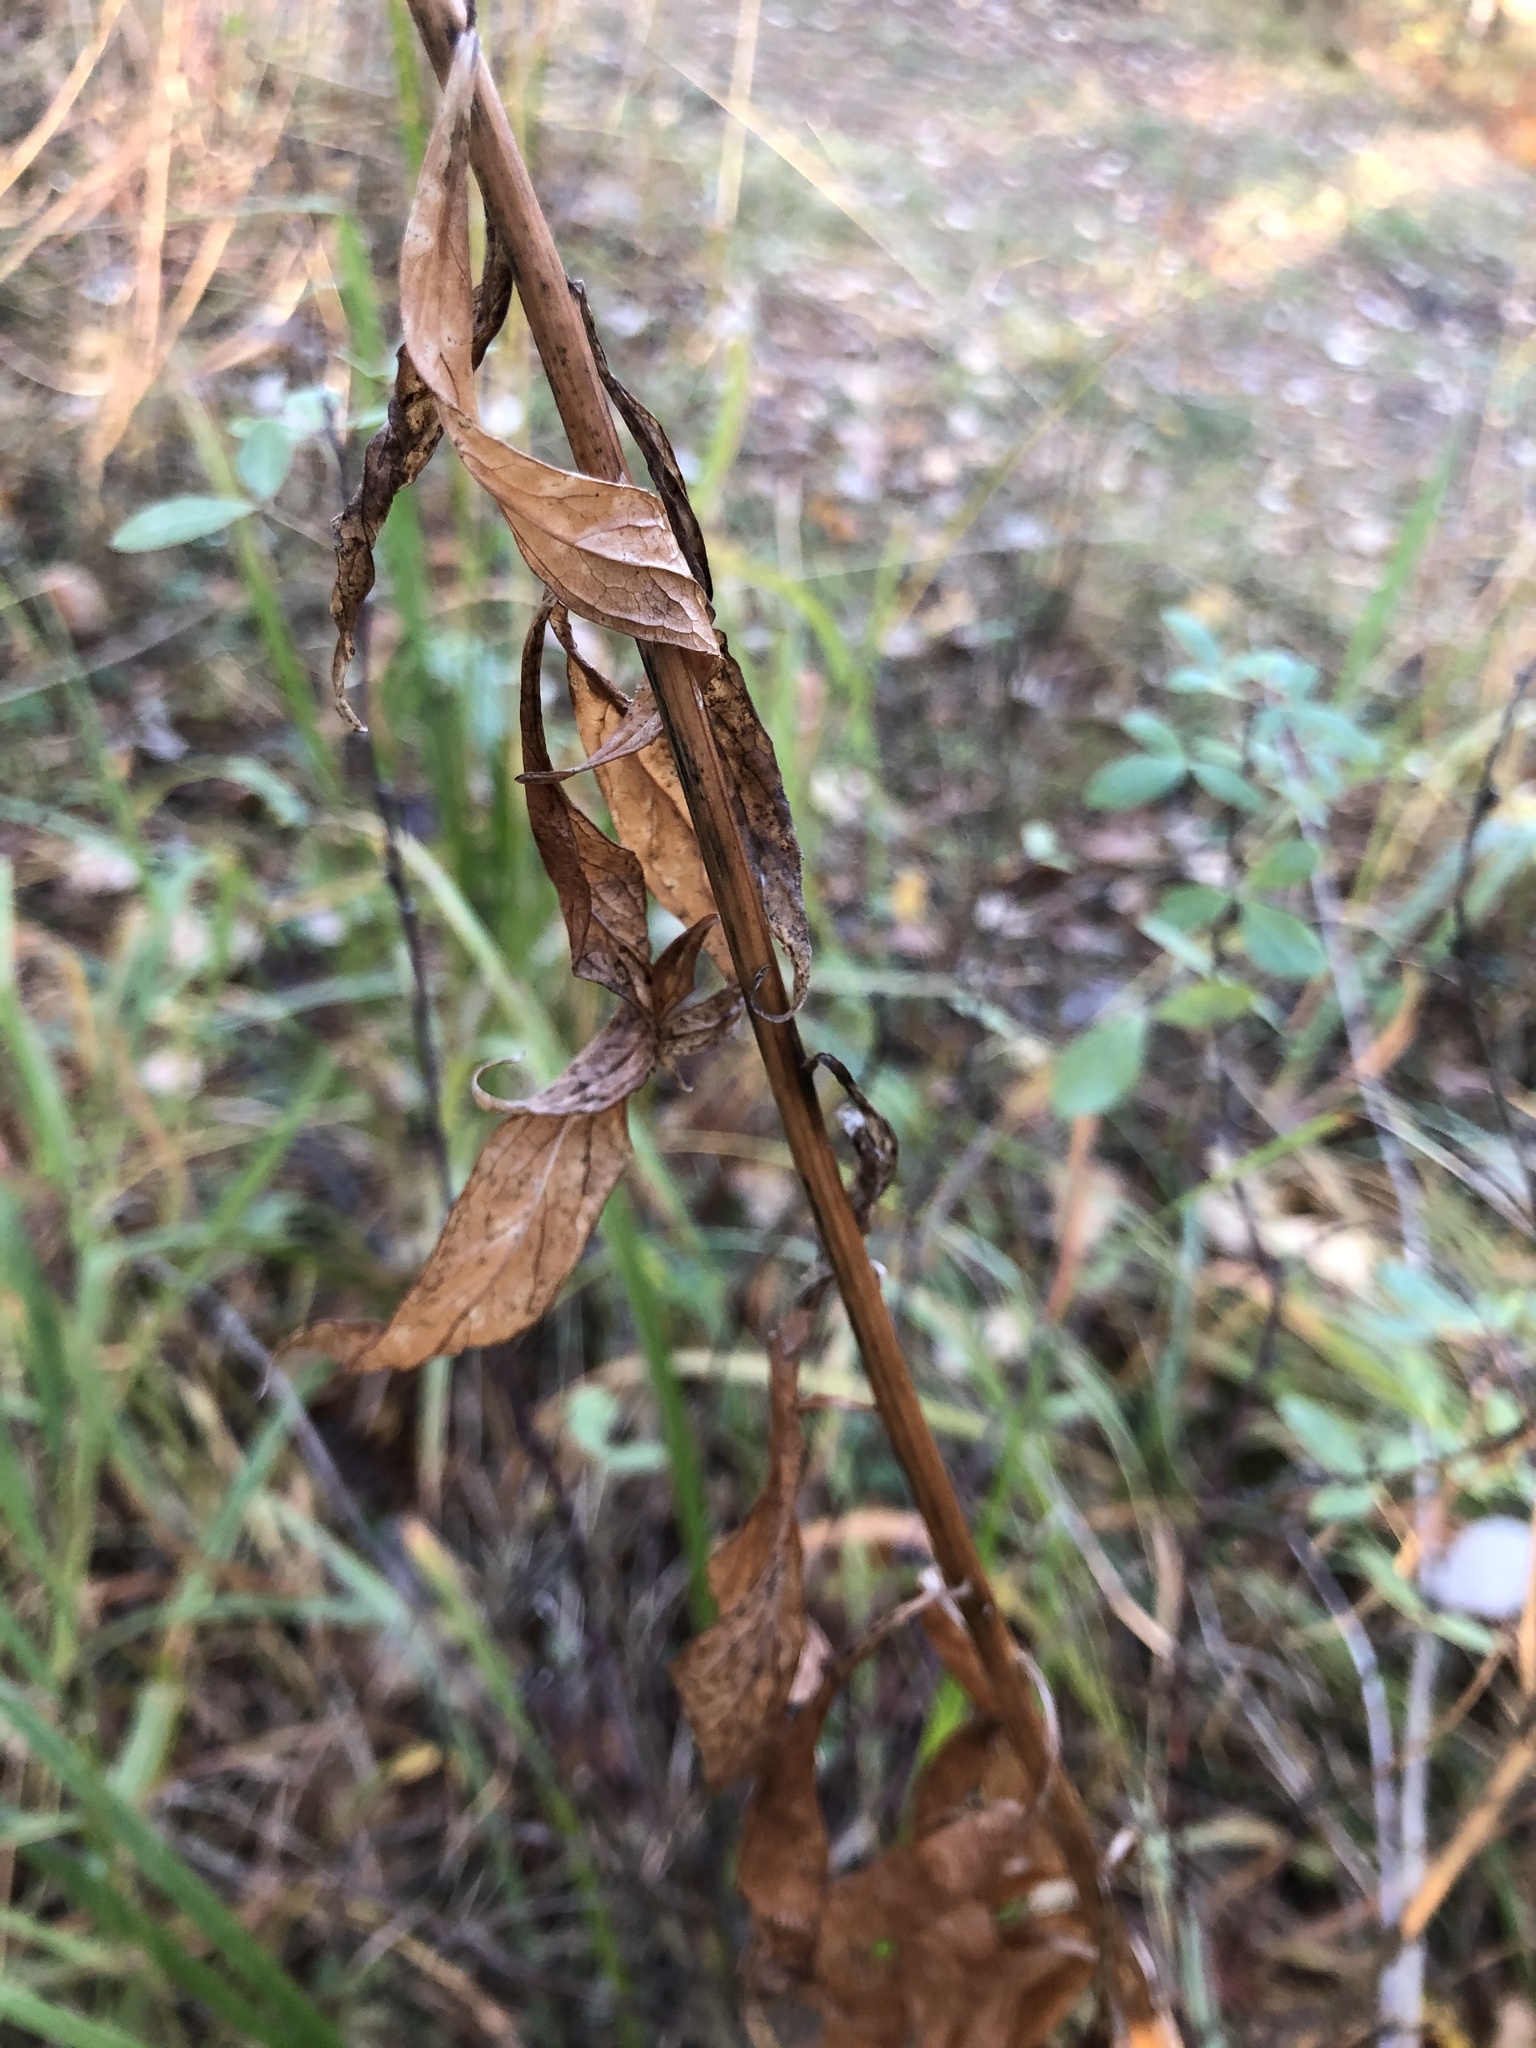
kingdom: Plantae
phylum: Tracheophyta
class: Magnoliopsida
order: Asterales
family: Campanulaceae
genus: Adenophora
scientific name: Adenophora liliifolia
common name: Lilyleaf ladybells
